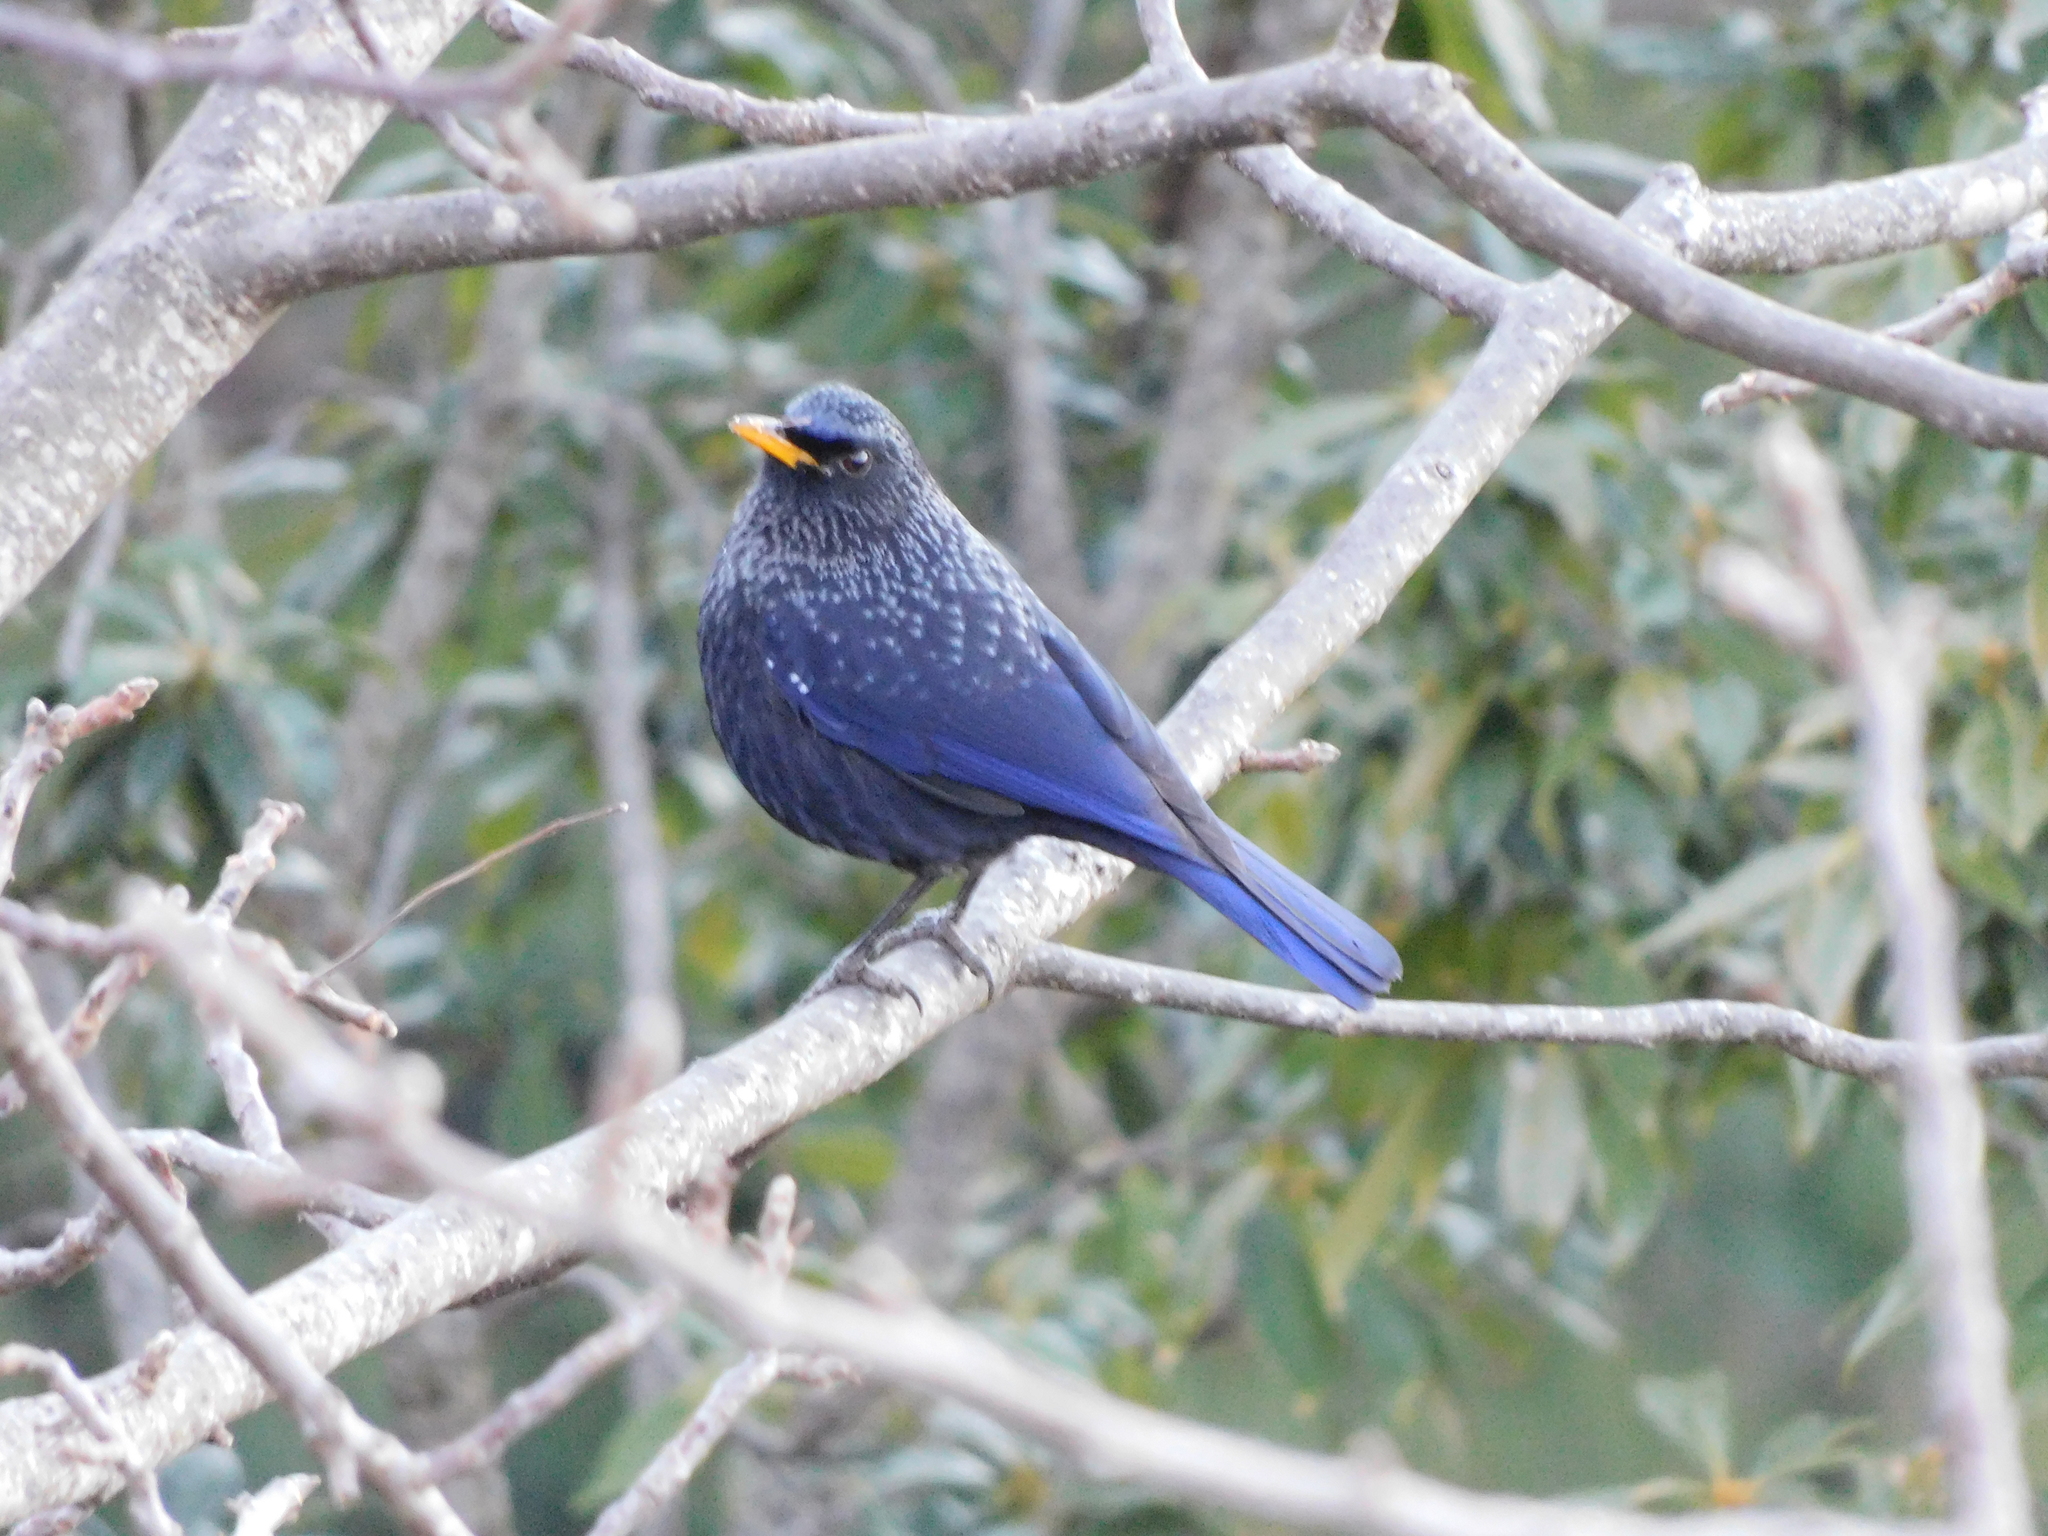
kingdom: Animalia
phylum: Chordata
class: Aves
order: Passeriformes
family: Muscicapidae
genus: Myophonus
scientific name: Myophonus caeruleus
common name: Blue whistling-thrush
